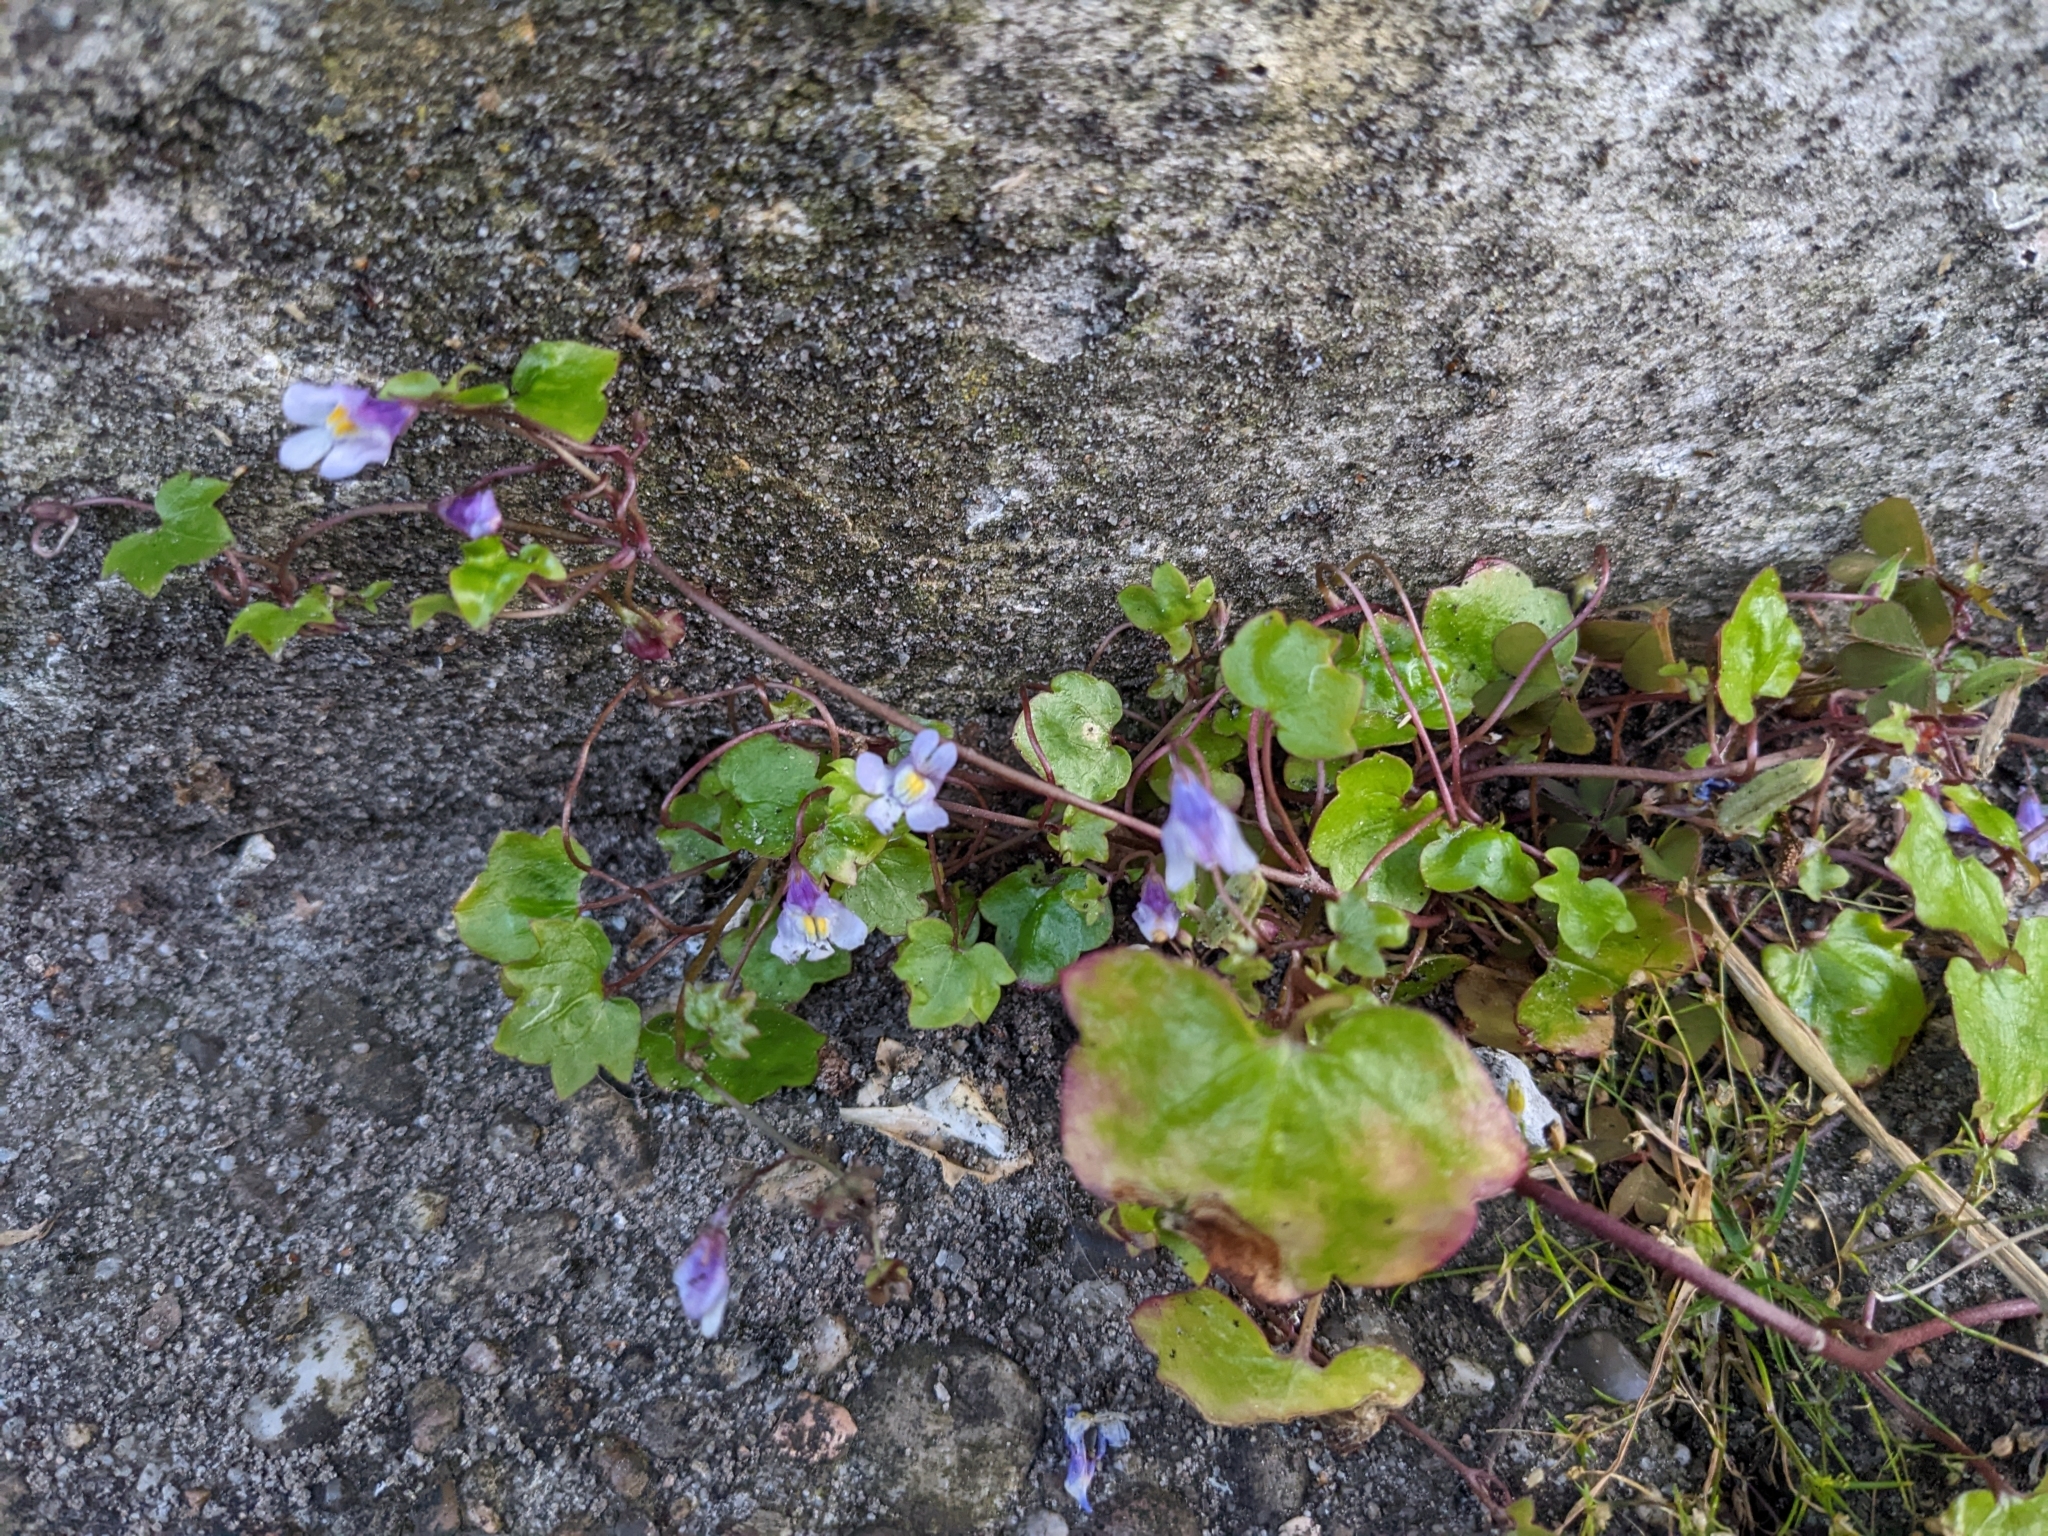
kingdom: Plantae
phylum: Tracheophyta
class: Magnoliopsida
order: Lamiales
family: Plantaginaceae
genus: Cymbalaria
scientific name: Cymbalaria muralis
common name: Ivy-leaved toadflax
